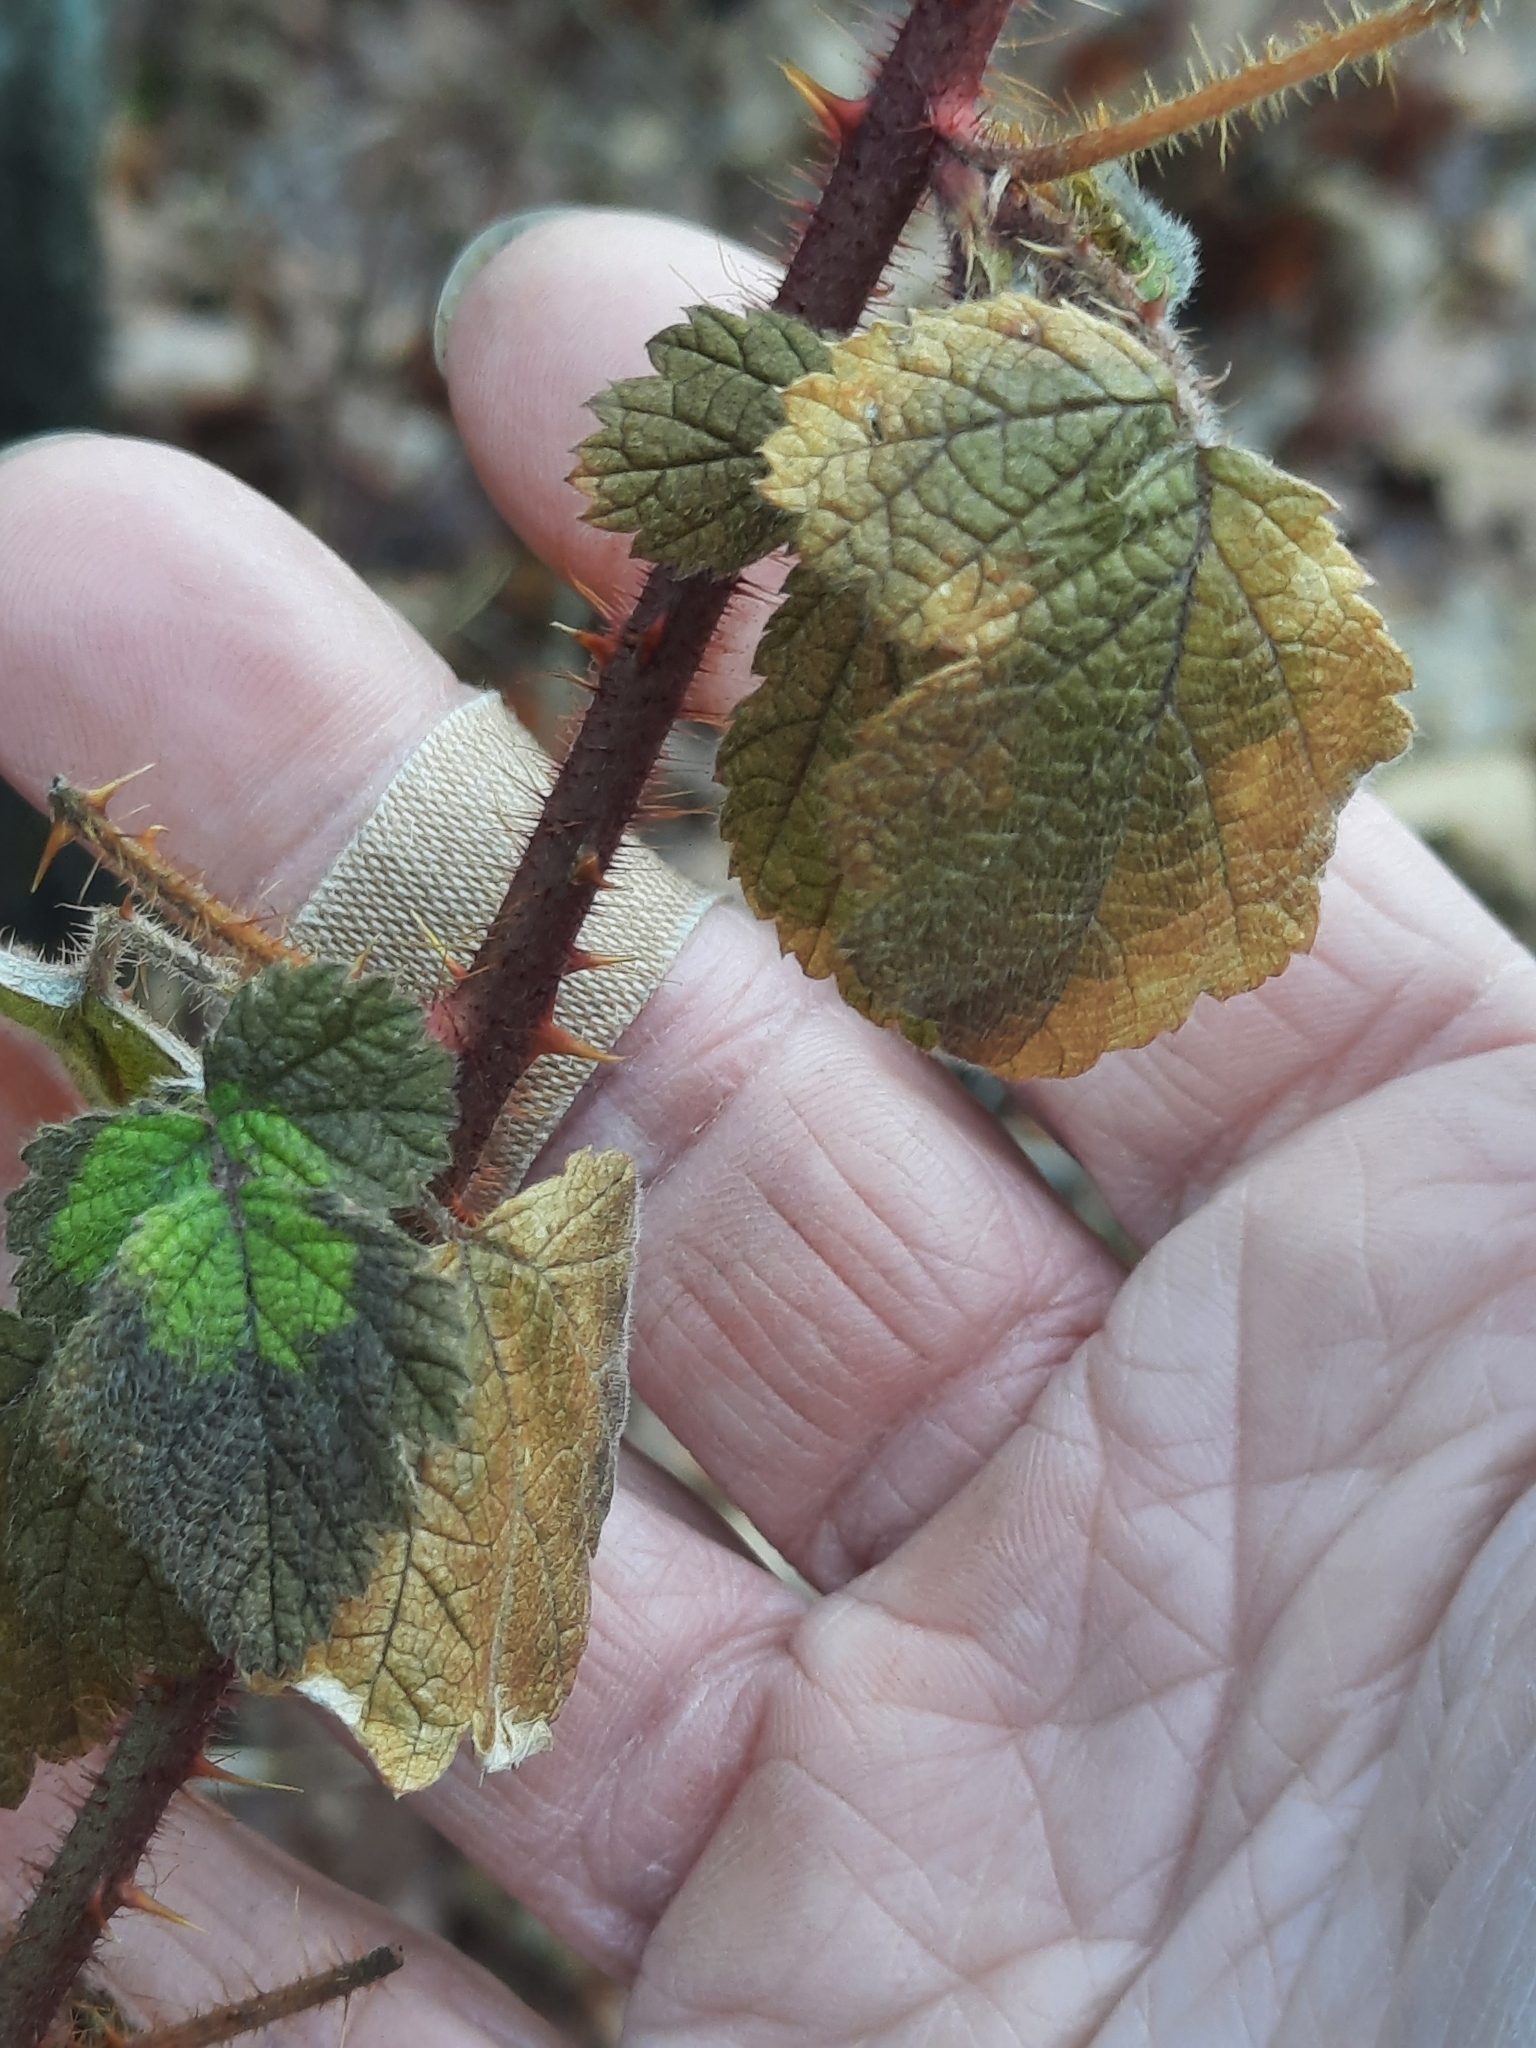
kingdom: Plantae
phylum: Tracheophyta
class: Magnoliopsida
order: Rosales
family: Rosaceae
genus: Rubus
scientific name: Rubus phoenicolasius
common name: Japanese wineberry
